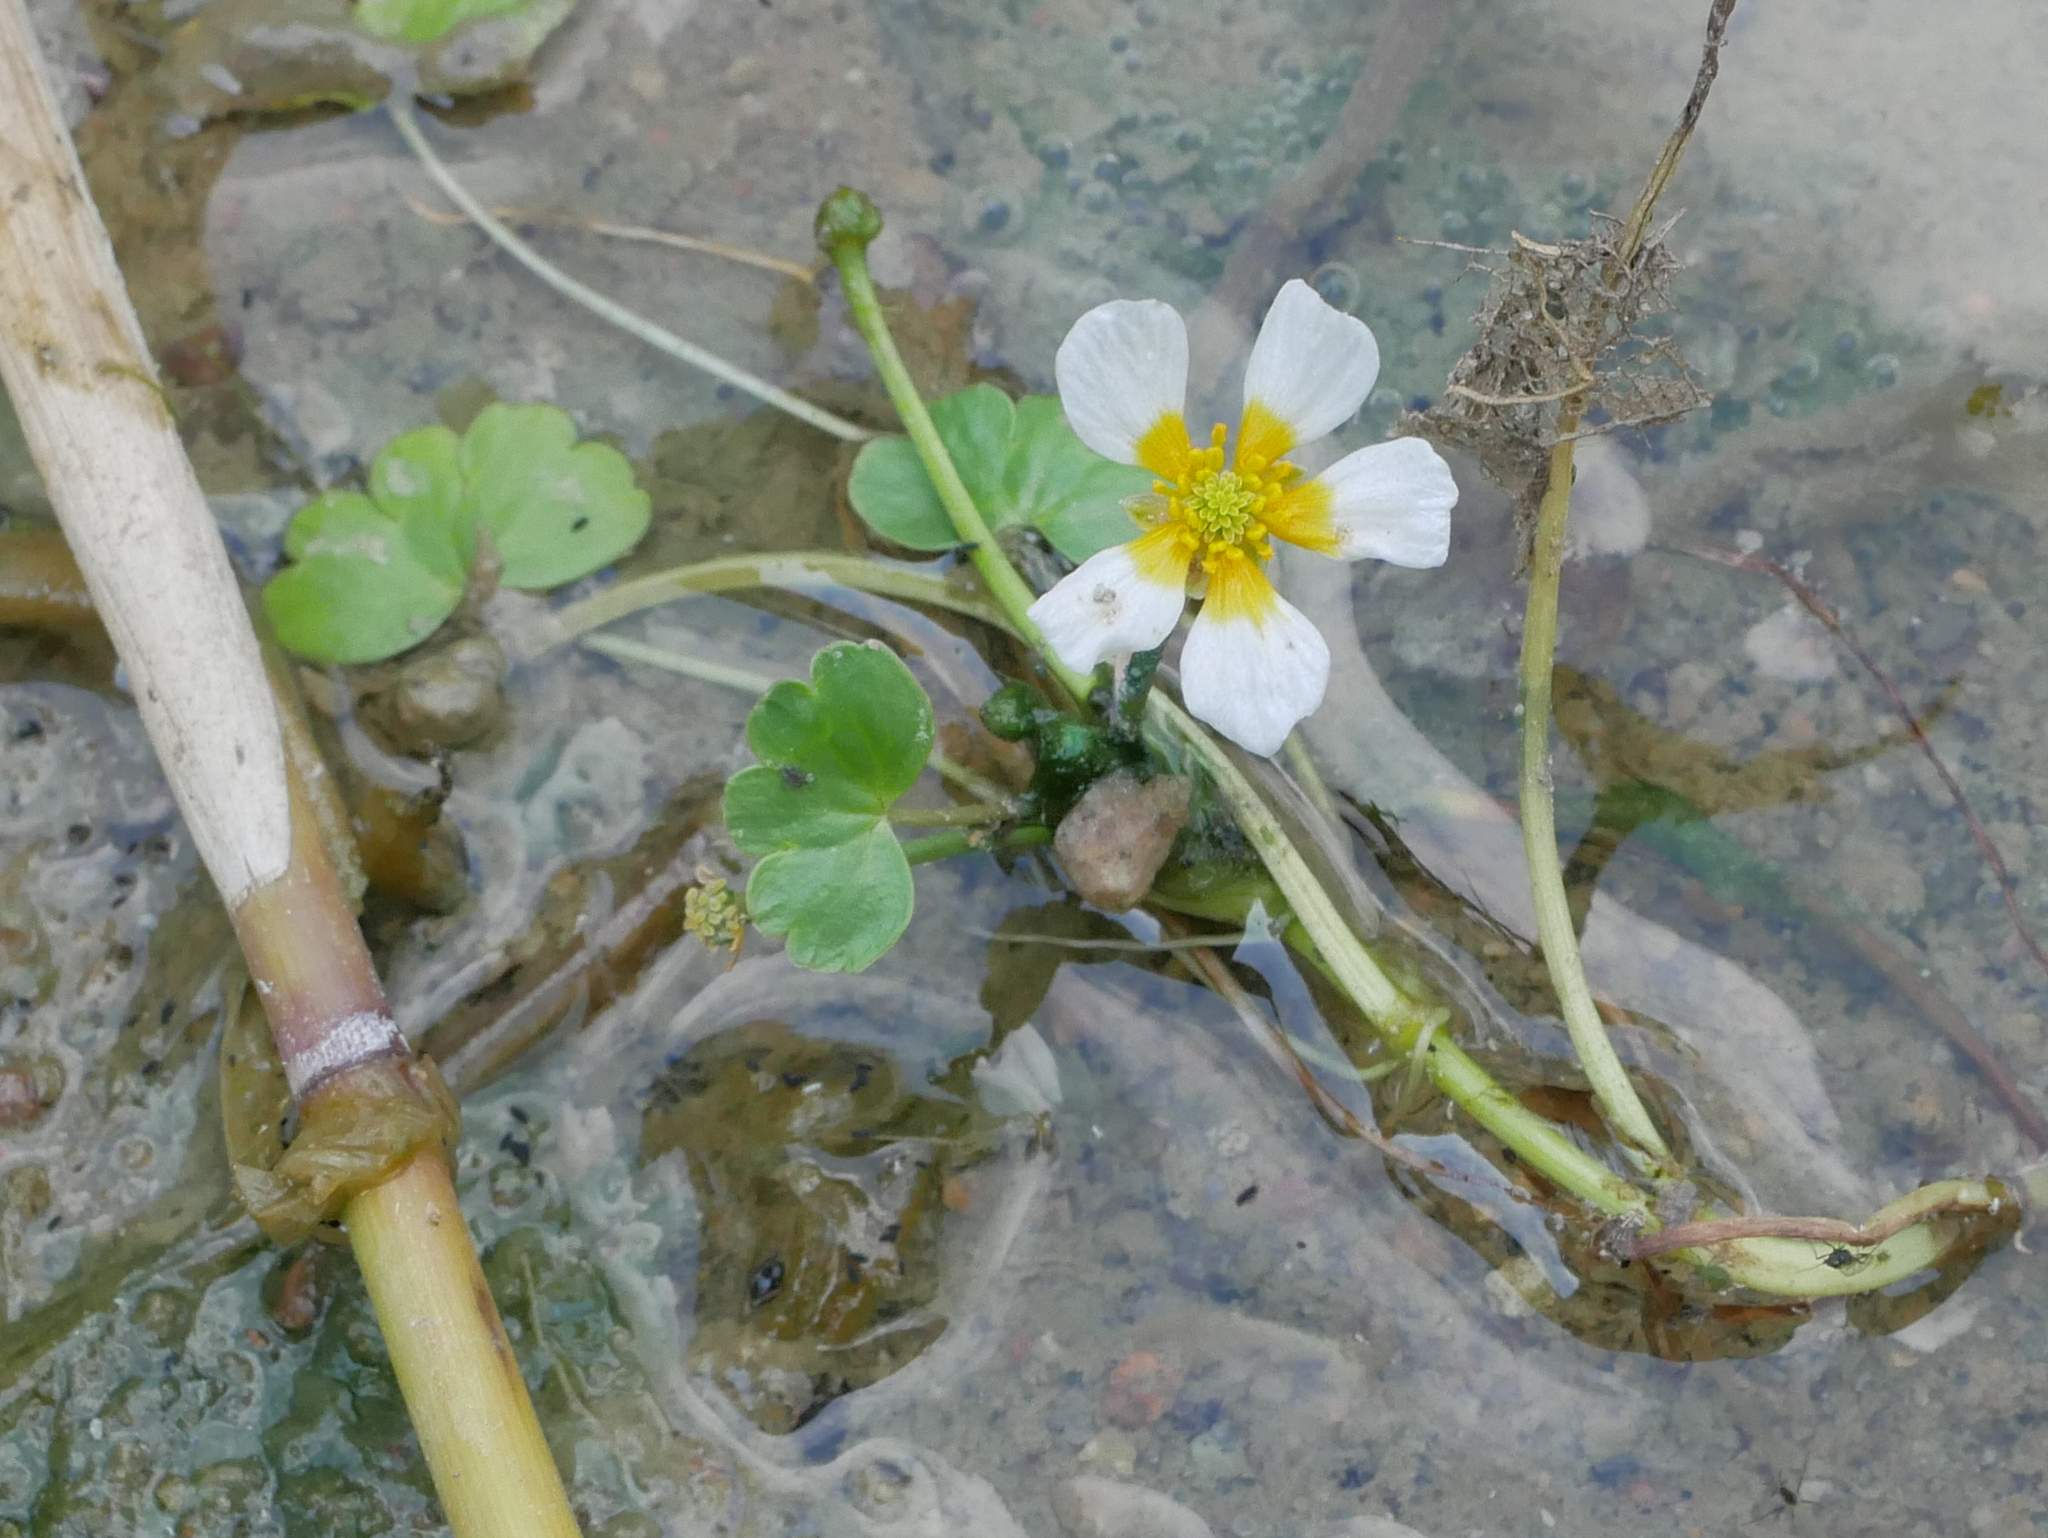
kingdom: Plantae
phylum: Tracheophyta
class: Magnoliopsida
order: Ranunculales
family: Ranunculaceae
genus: Ranunculus
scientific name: Ranunculus aquatilis
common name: Common water-crowfoot
